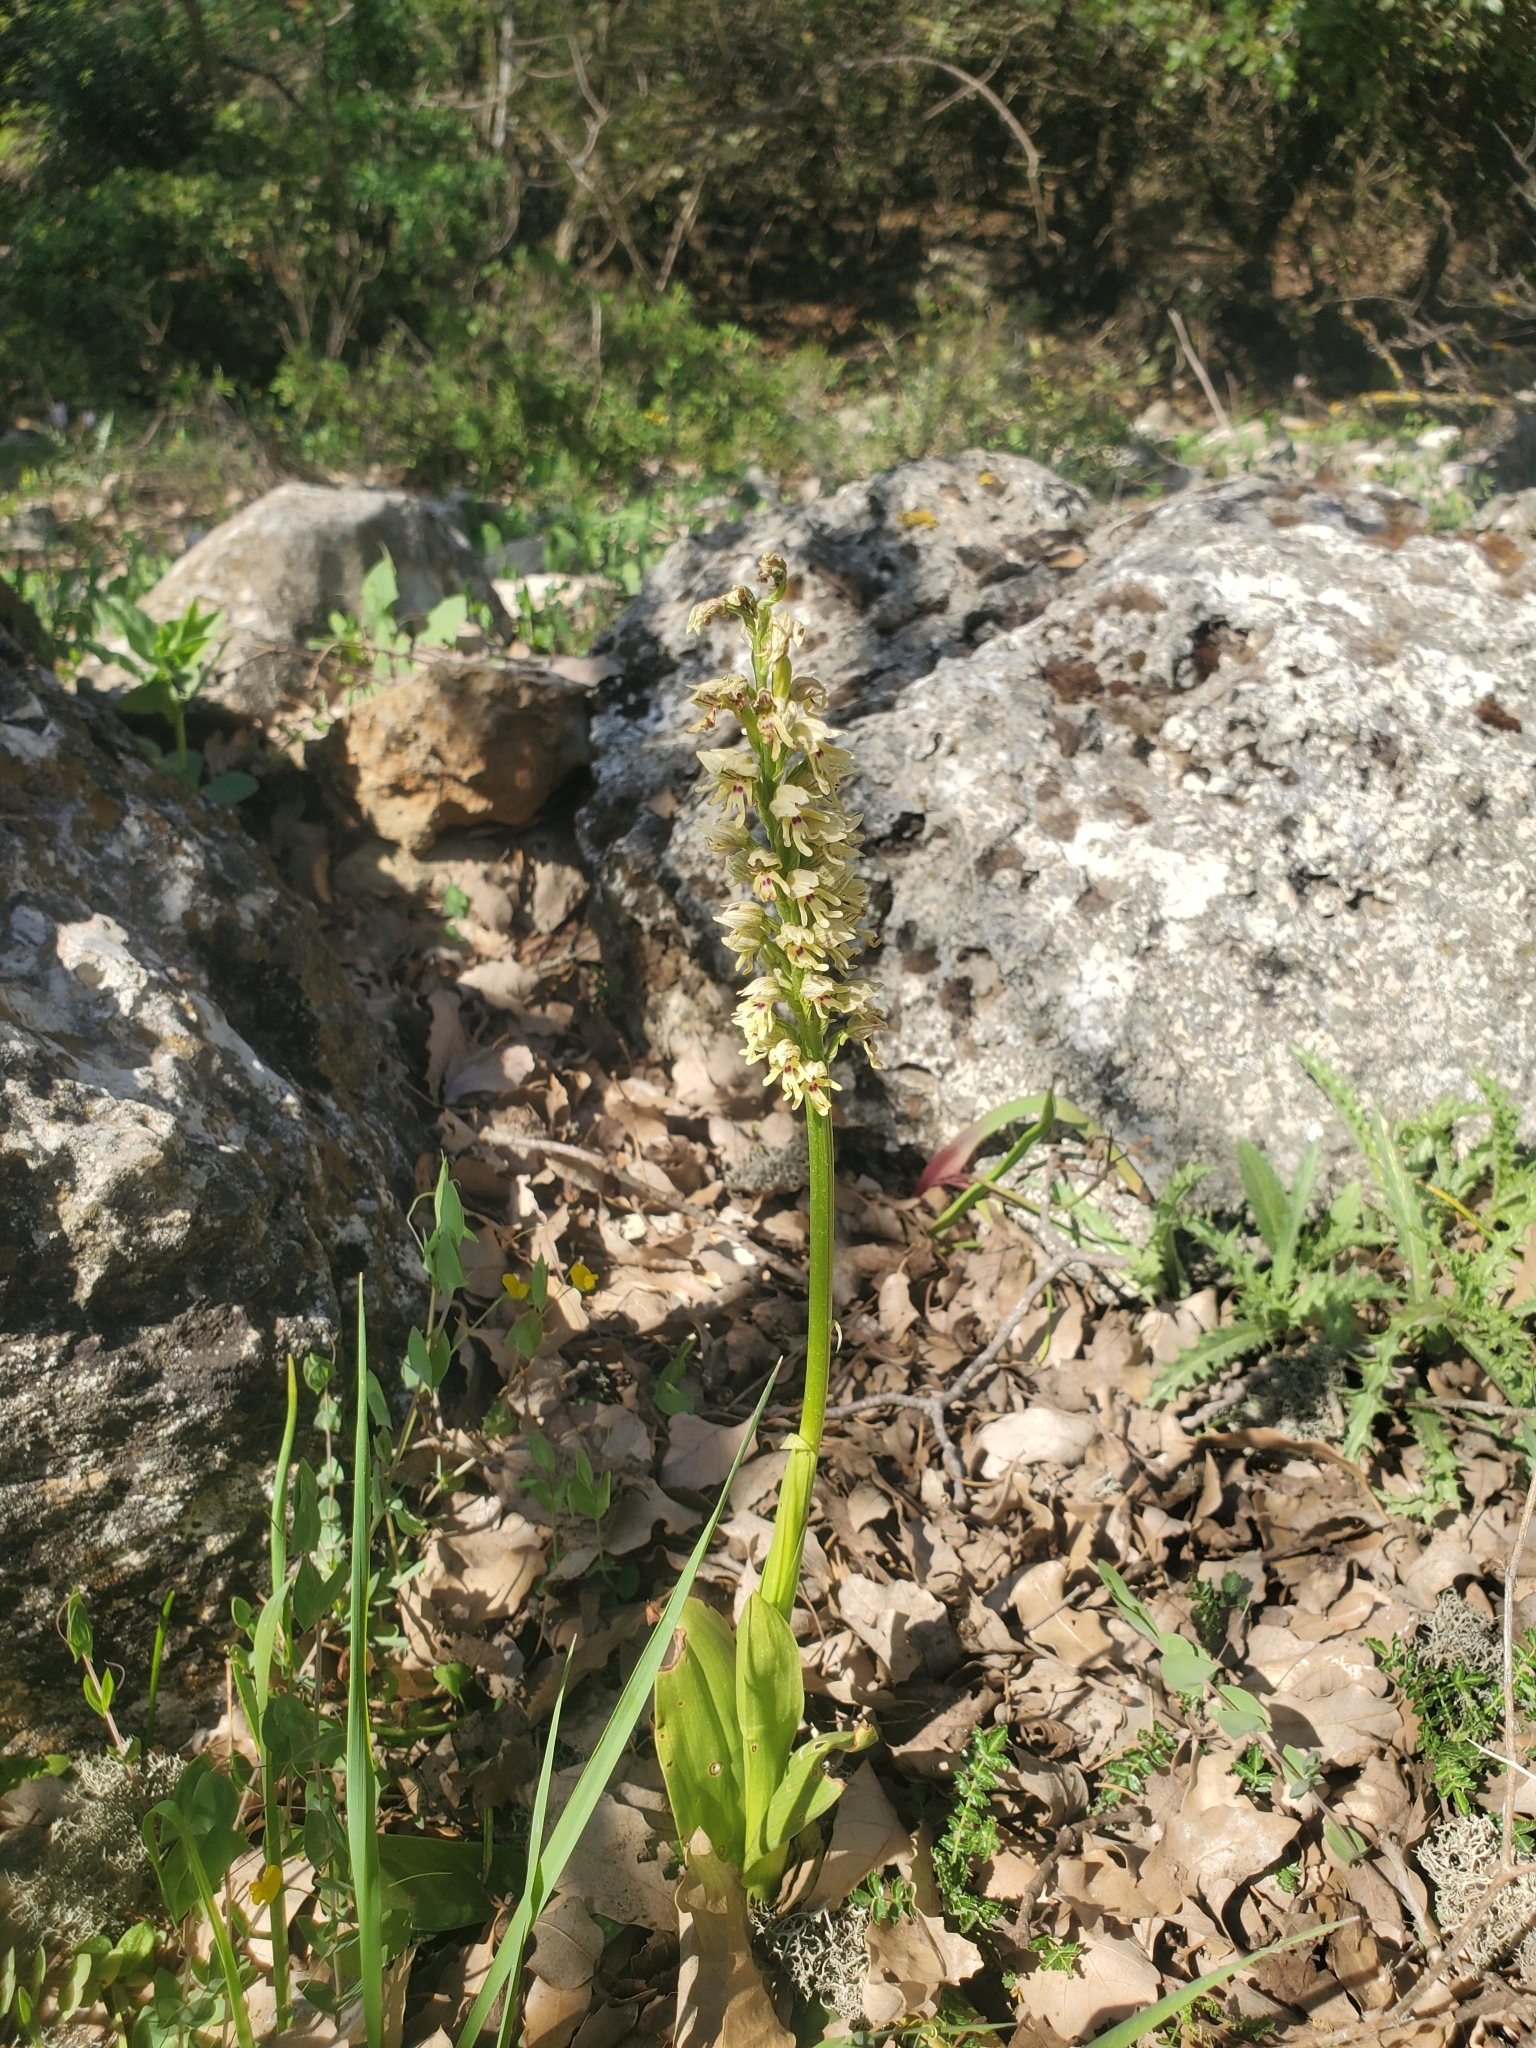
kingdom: Plantae
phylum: Tracheophyta
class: Liliopsida
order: Asparagales
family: Orchidaceae
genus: Orchis
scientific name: Orchis galilaea
